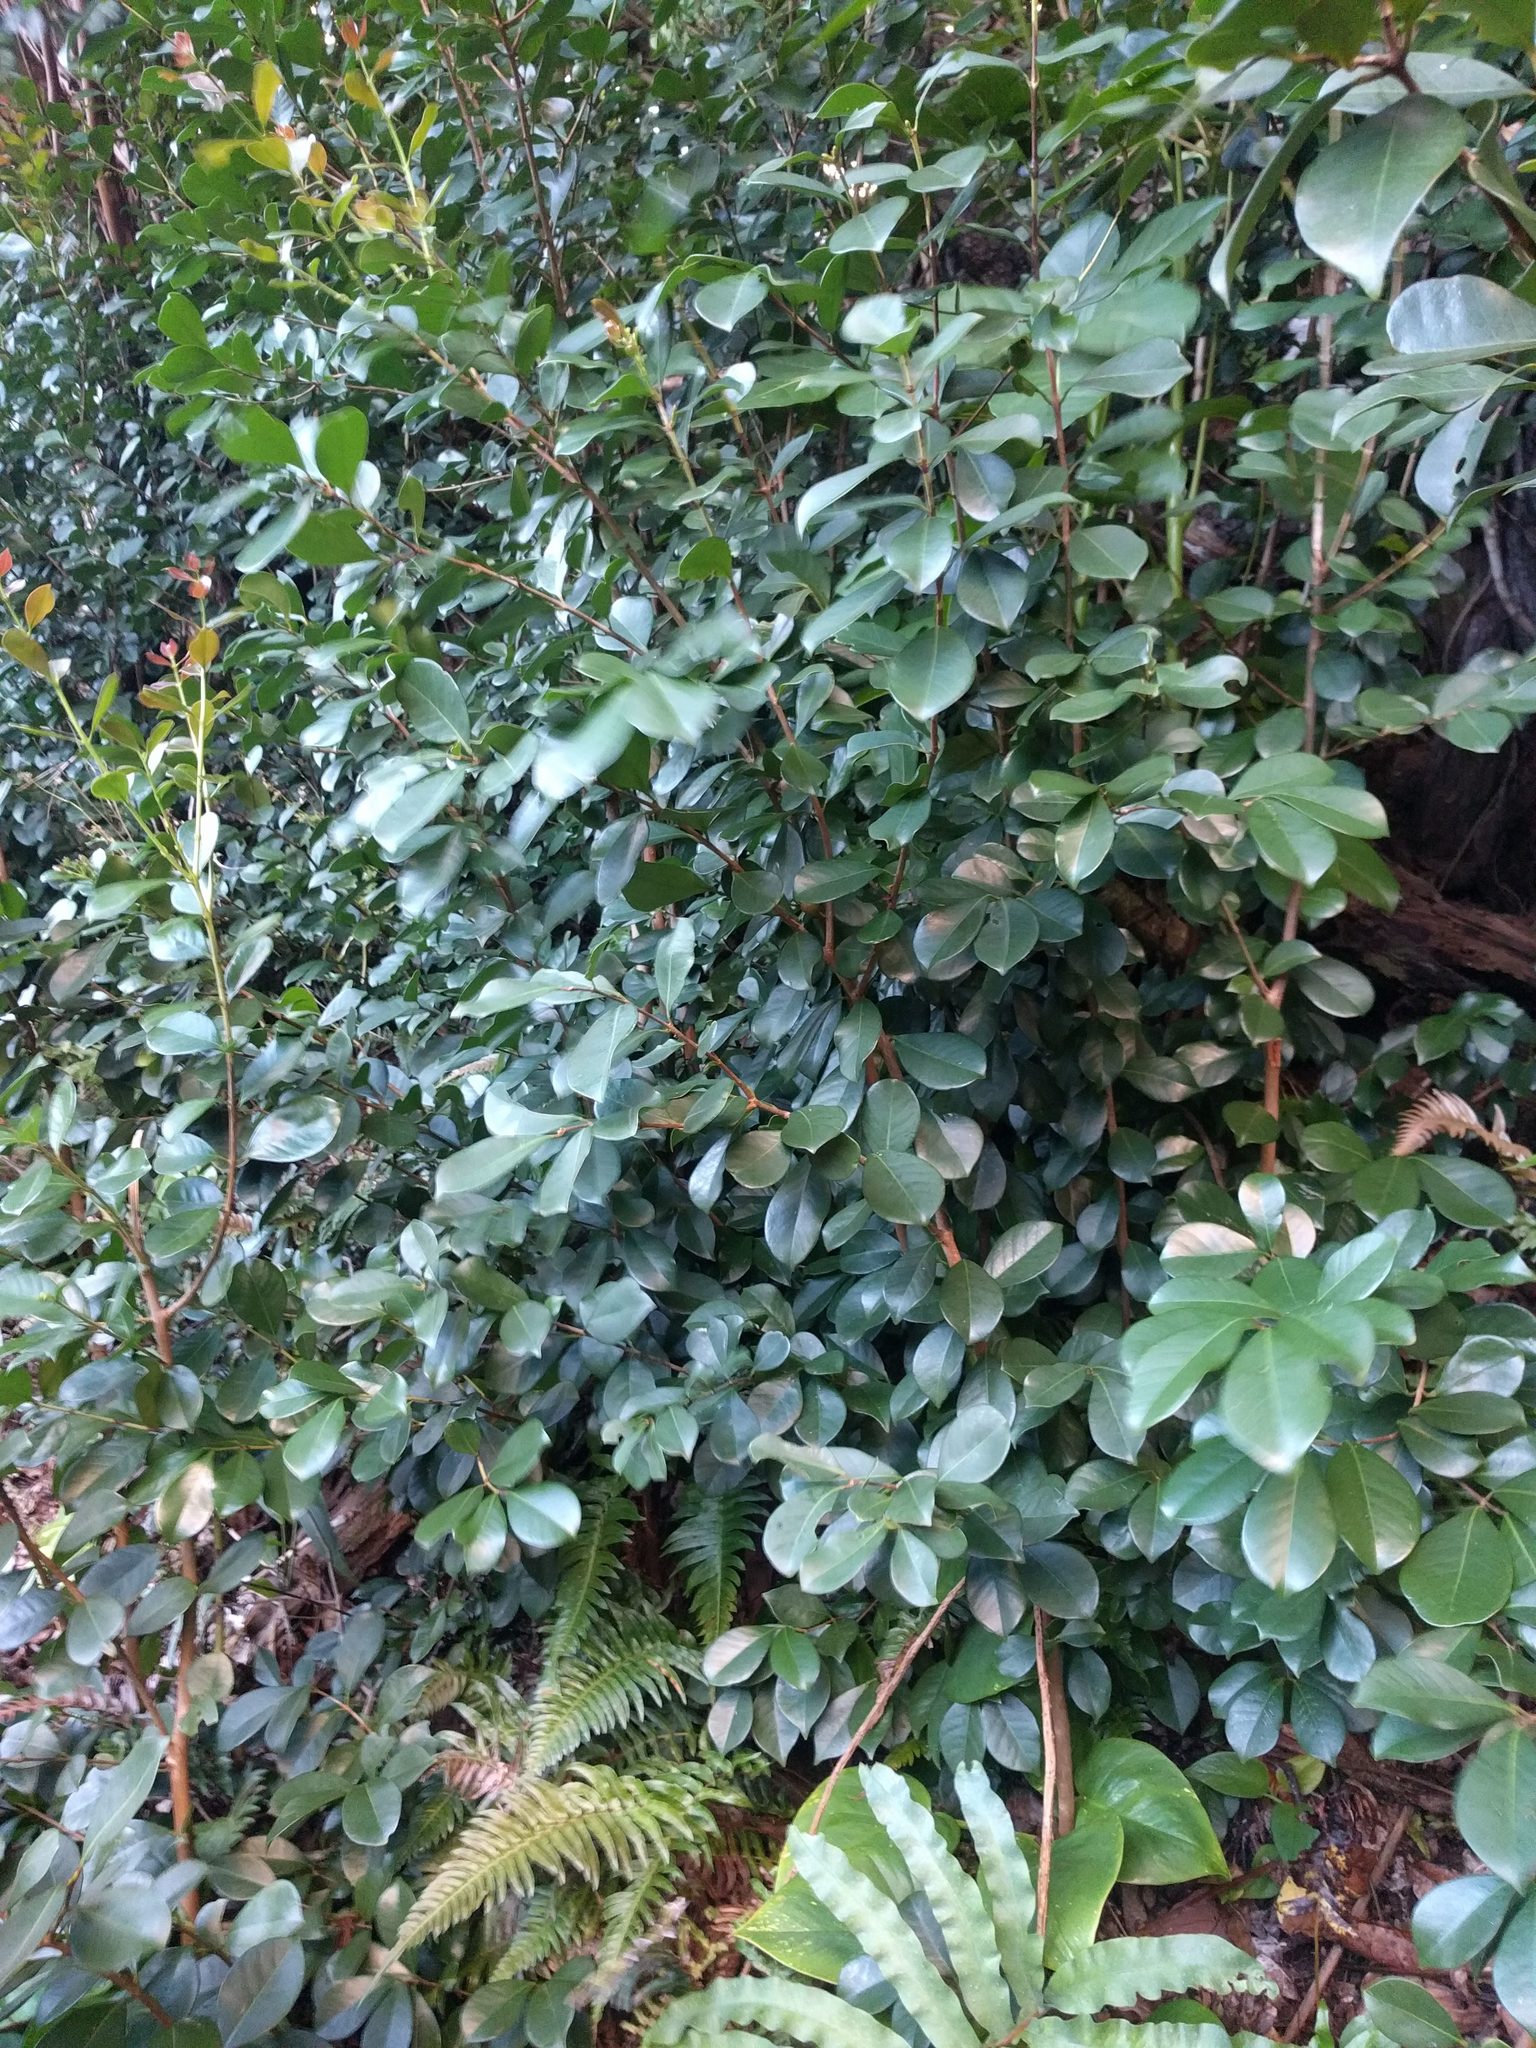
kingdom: Plantae
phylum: Tracheophyta
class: Magnoliopsida
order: Myrtales
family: Myrtaceae
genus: Psidium
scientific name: Psidium cattleianum
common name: Strawberry guava
